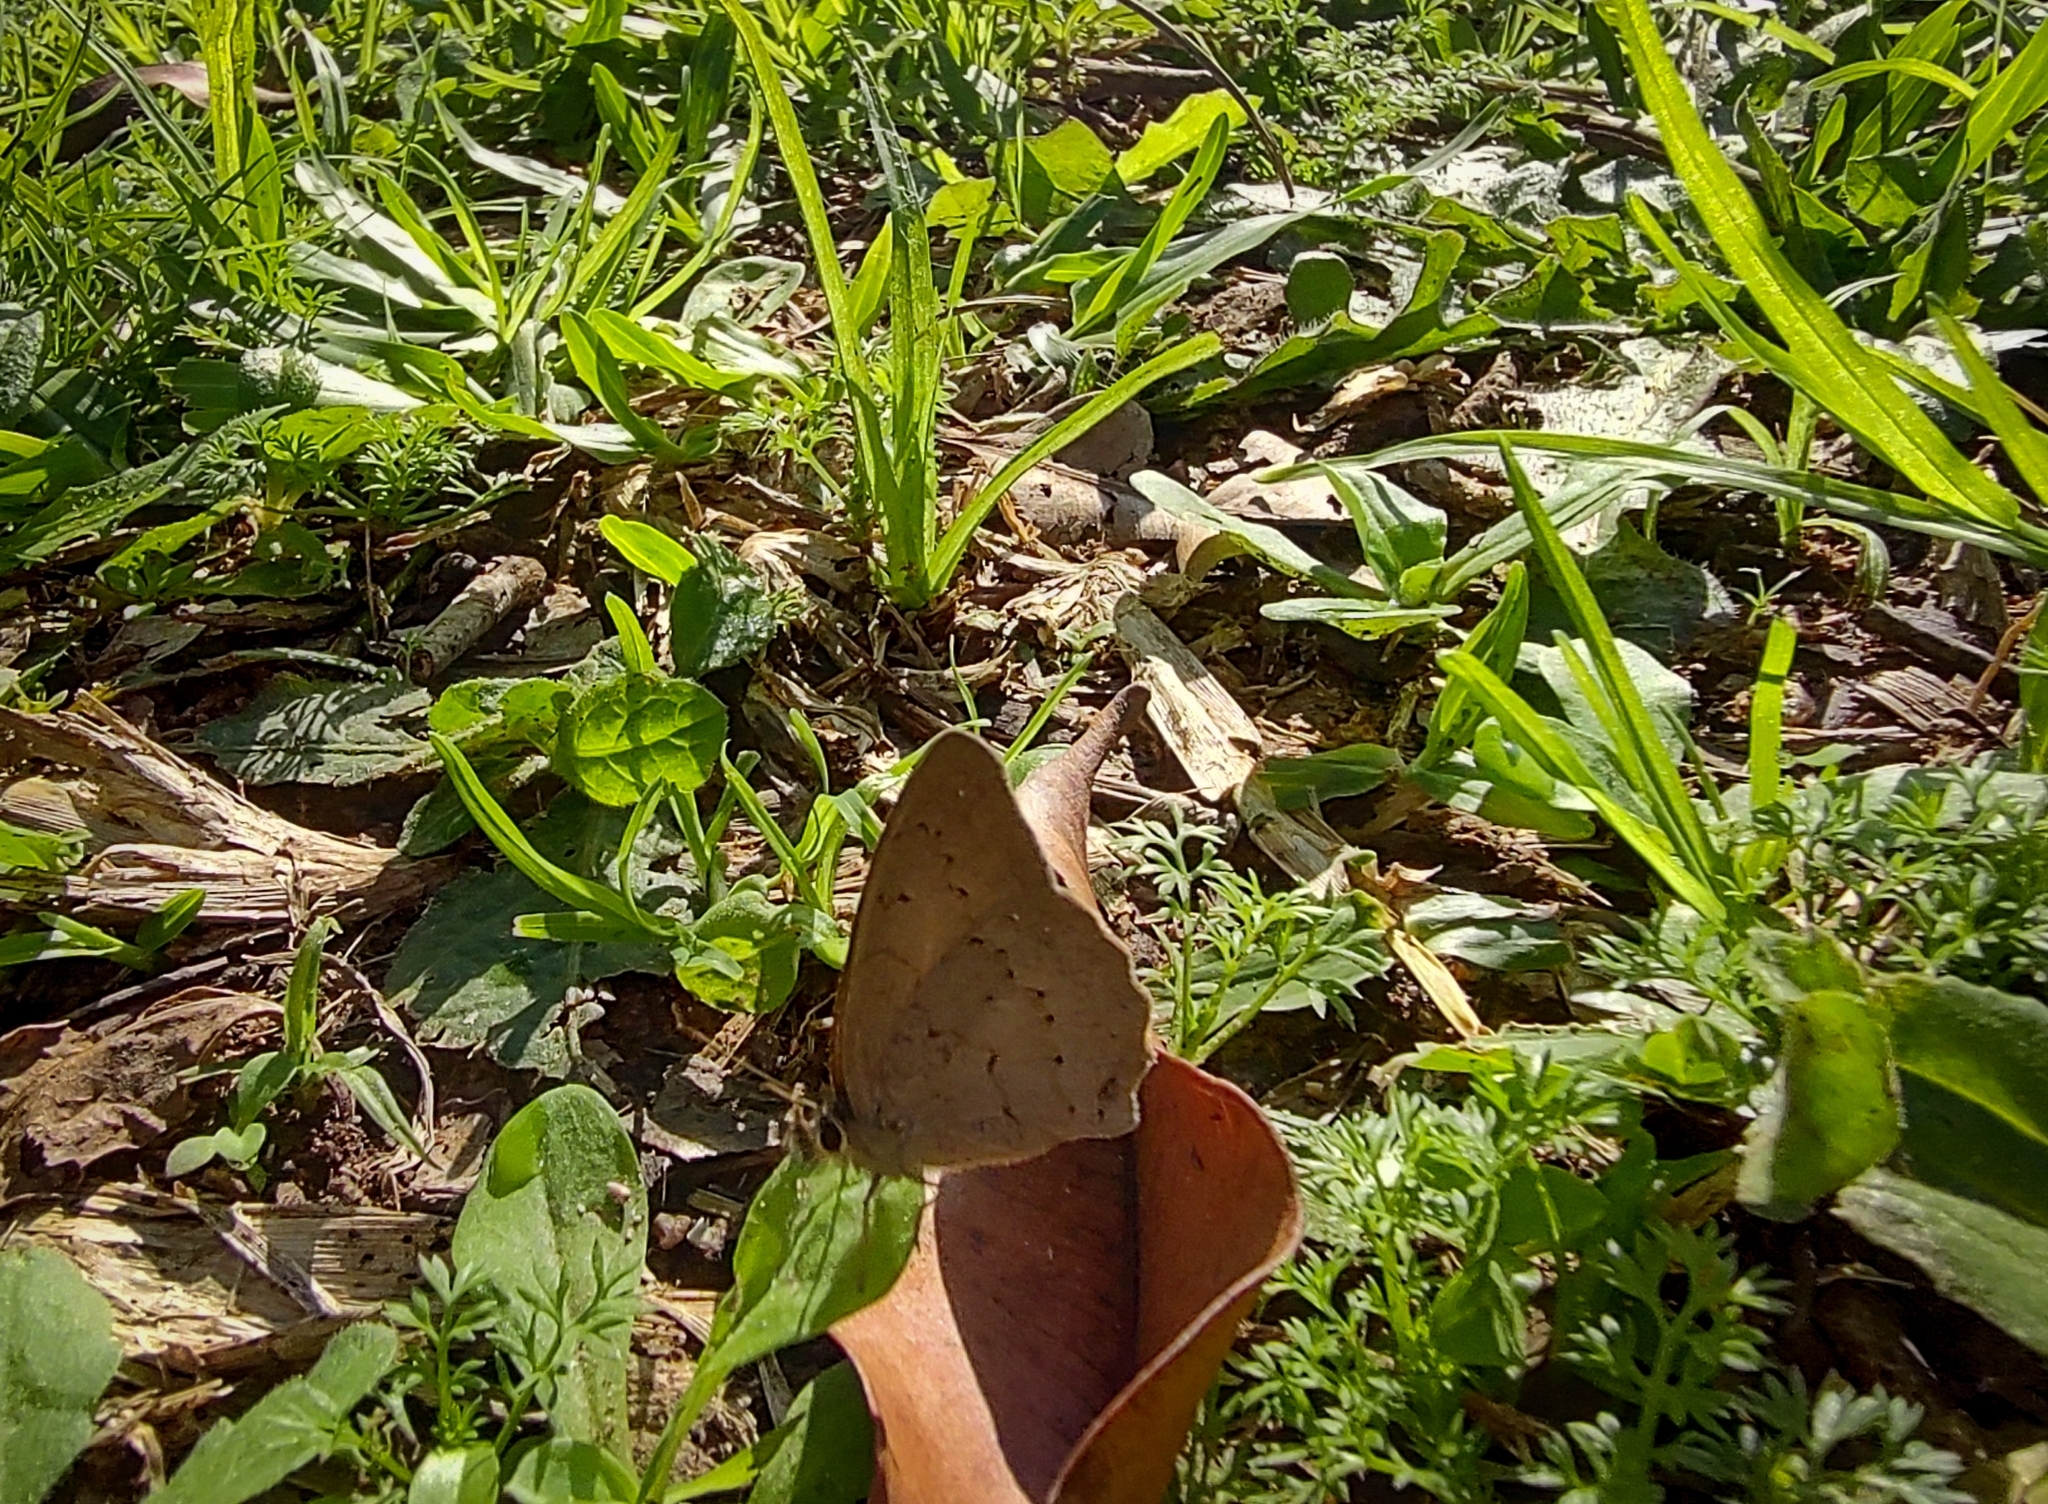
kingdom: Animalia
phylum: Arthropoda
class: Insecta
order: Lepidoptera
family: Nymphalidae
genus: Euptychia
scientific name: Euptychia
